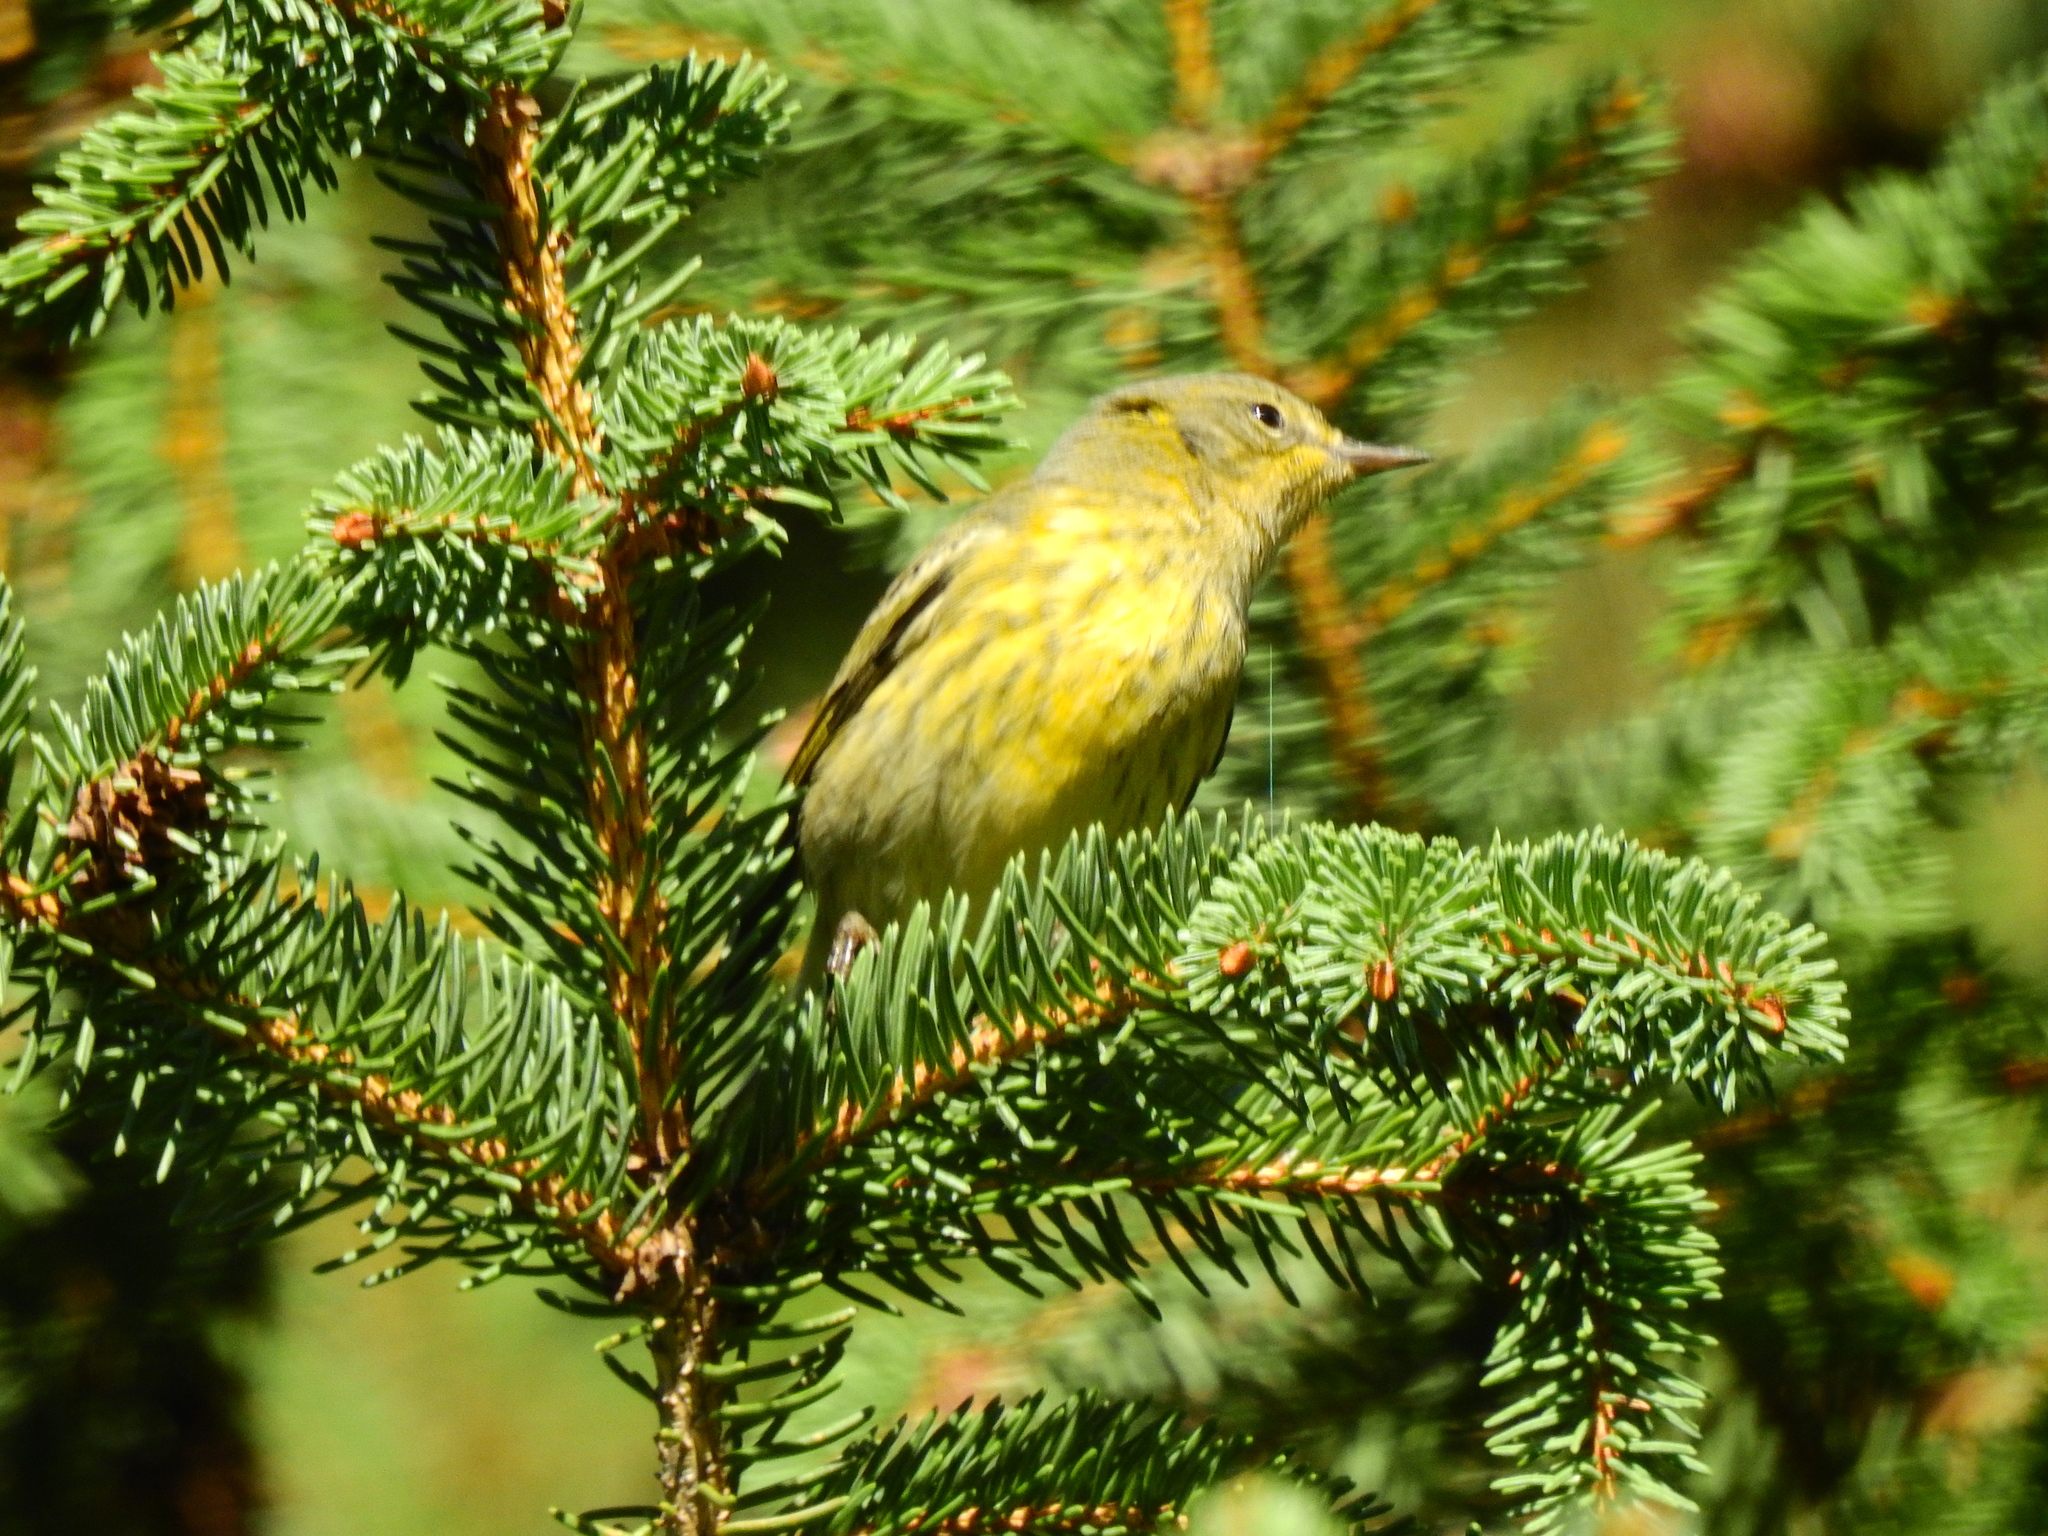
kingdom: Animalia
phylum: Chordata
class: Aves
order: Passeriformes
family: Parulidae
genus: Setophaga
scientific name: Setophaga tigrina
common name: Cape may warbler
